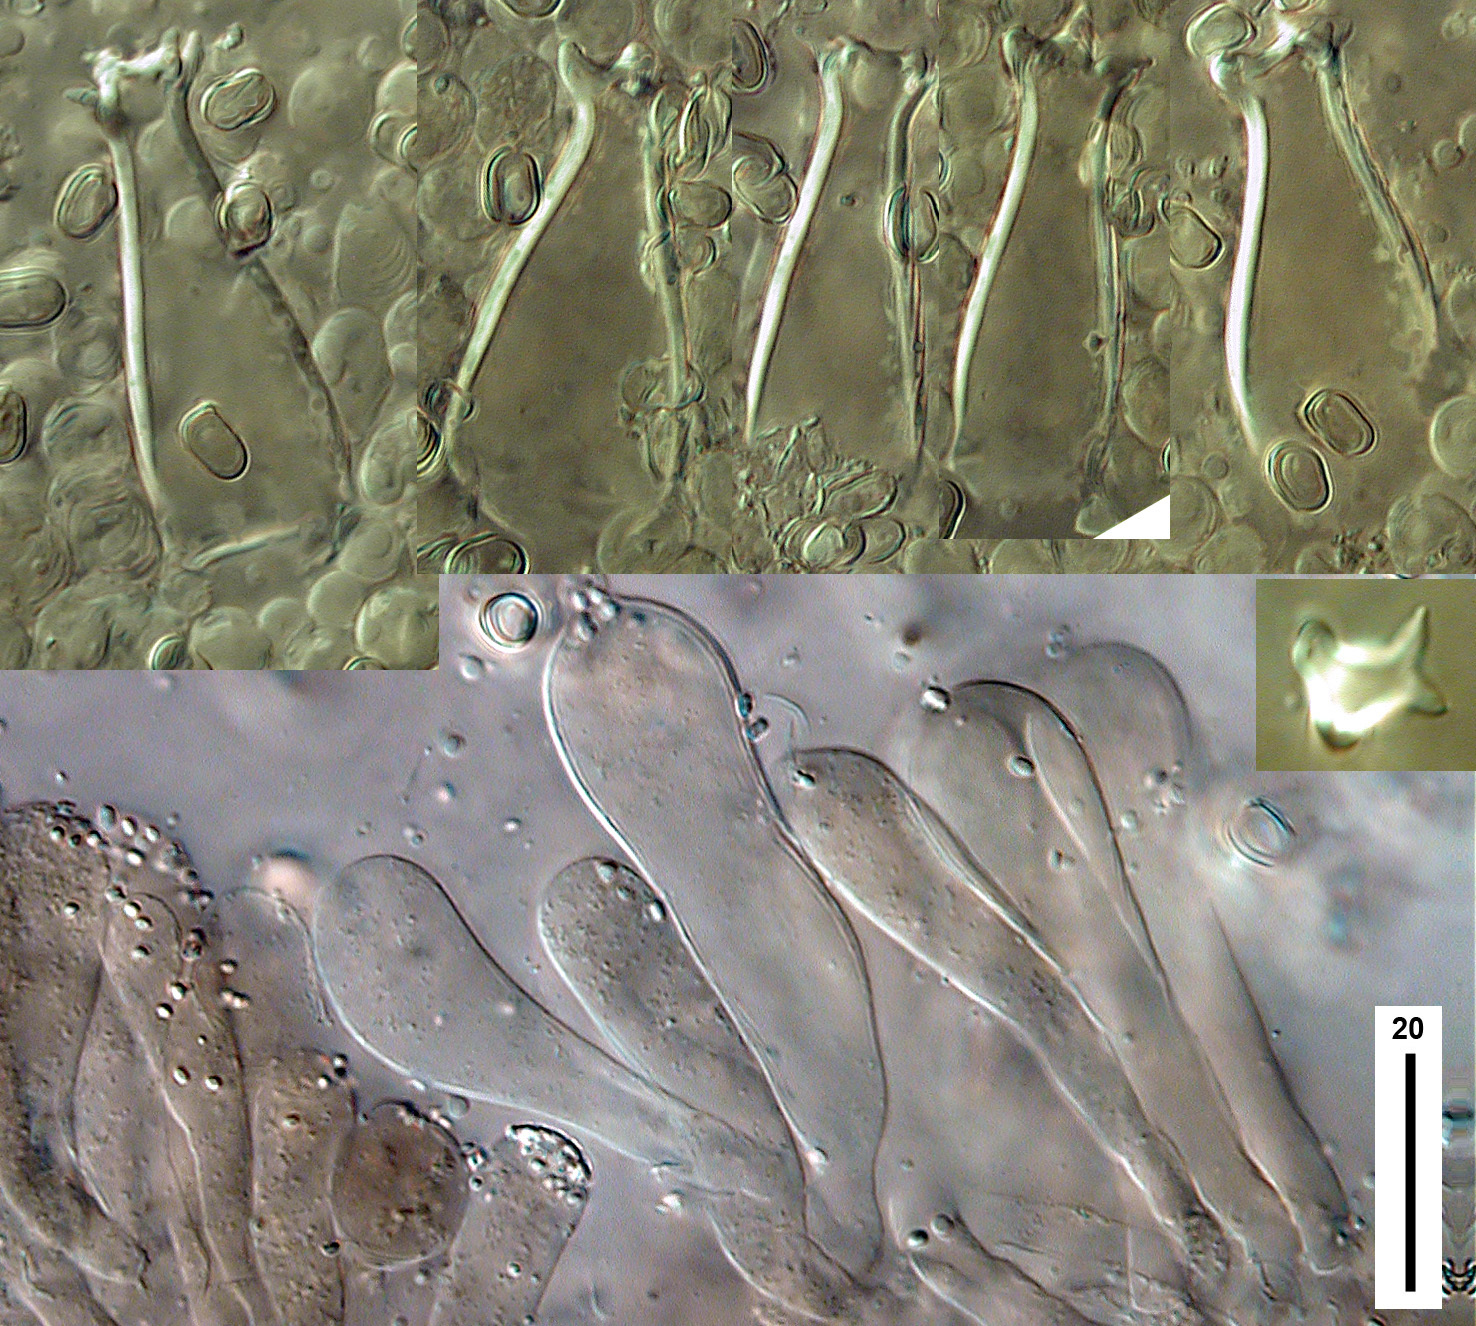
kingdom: Fungi
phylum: Basidiomycota
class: Agaricomycetes
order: Agaricales
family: Pluteaceae
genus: Pluteus
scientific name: Pluteus microspermus
